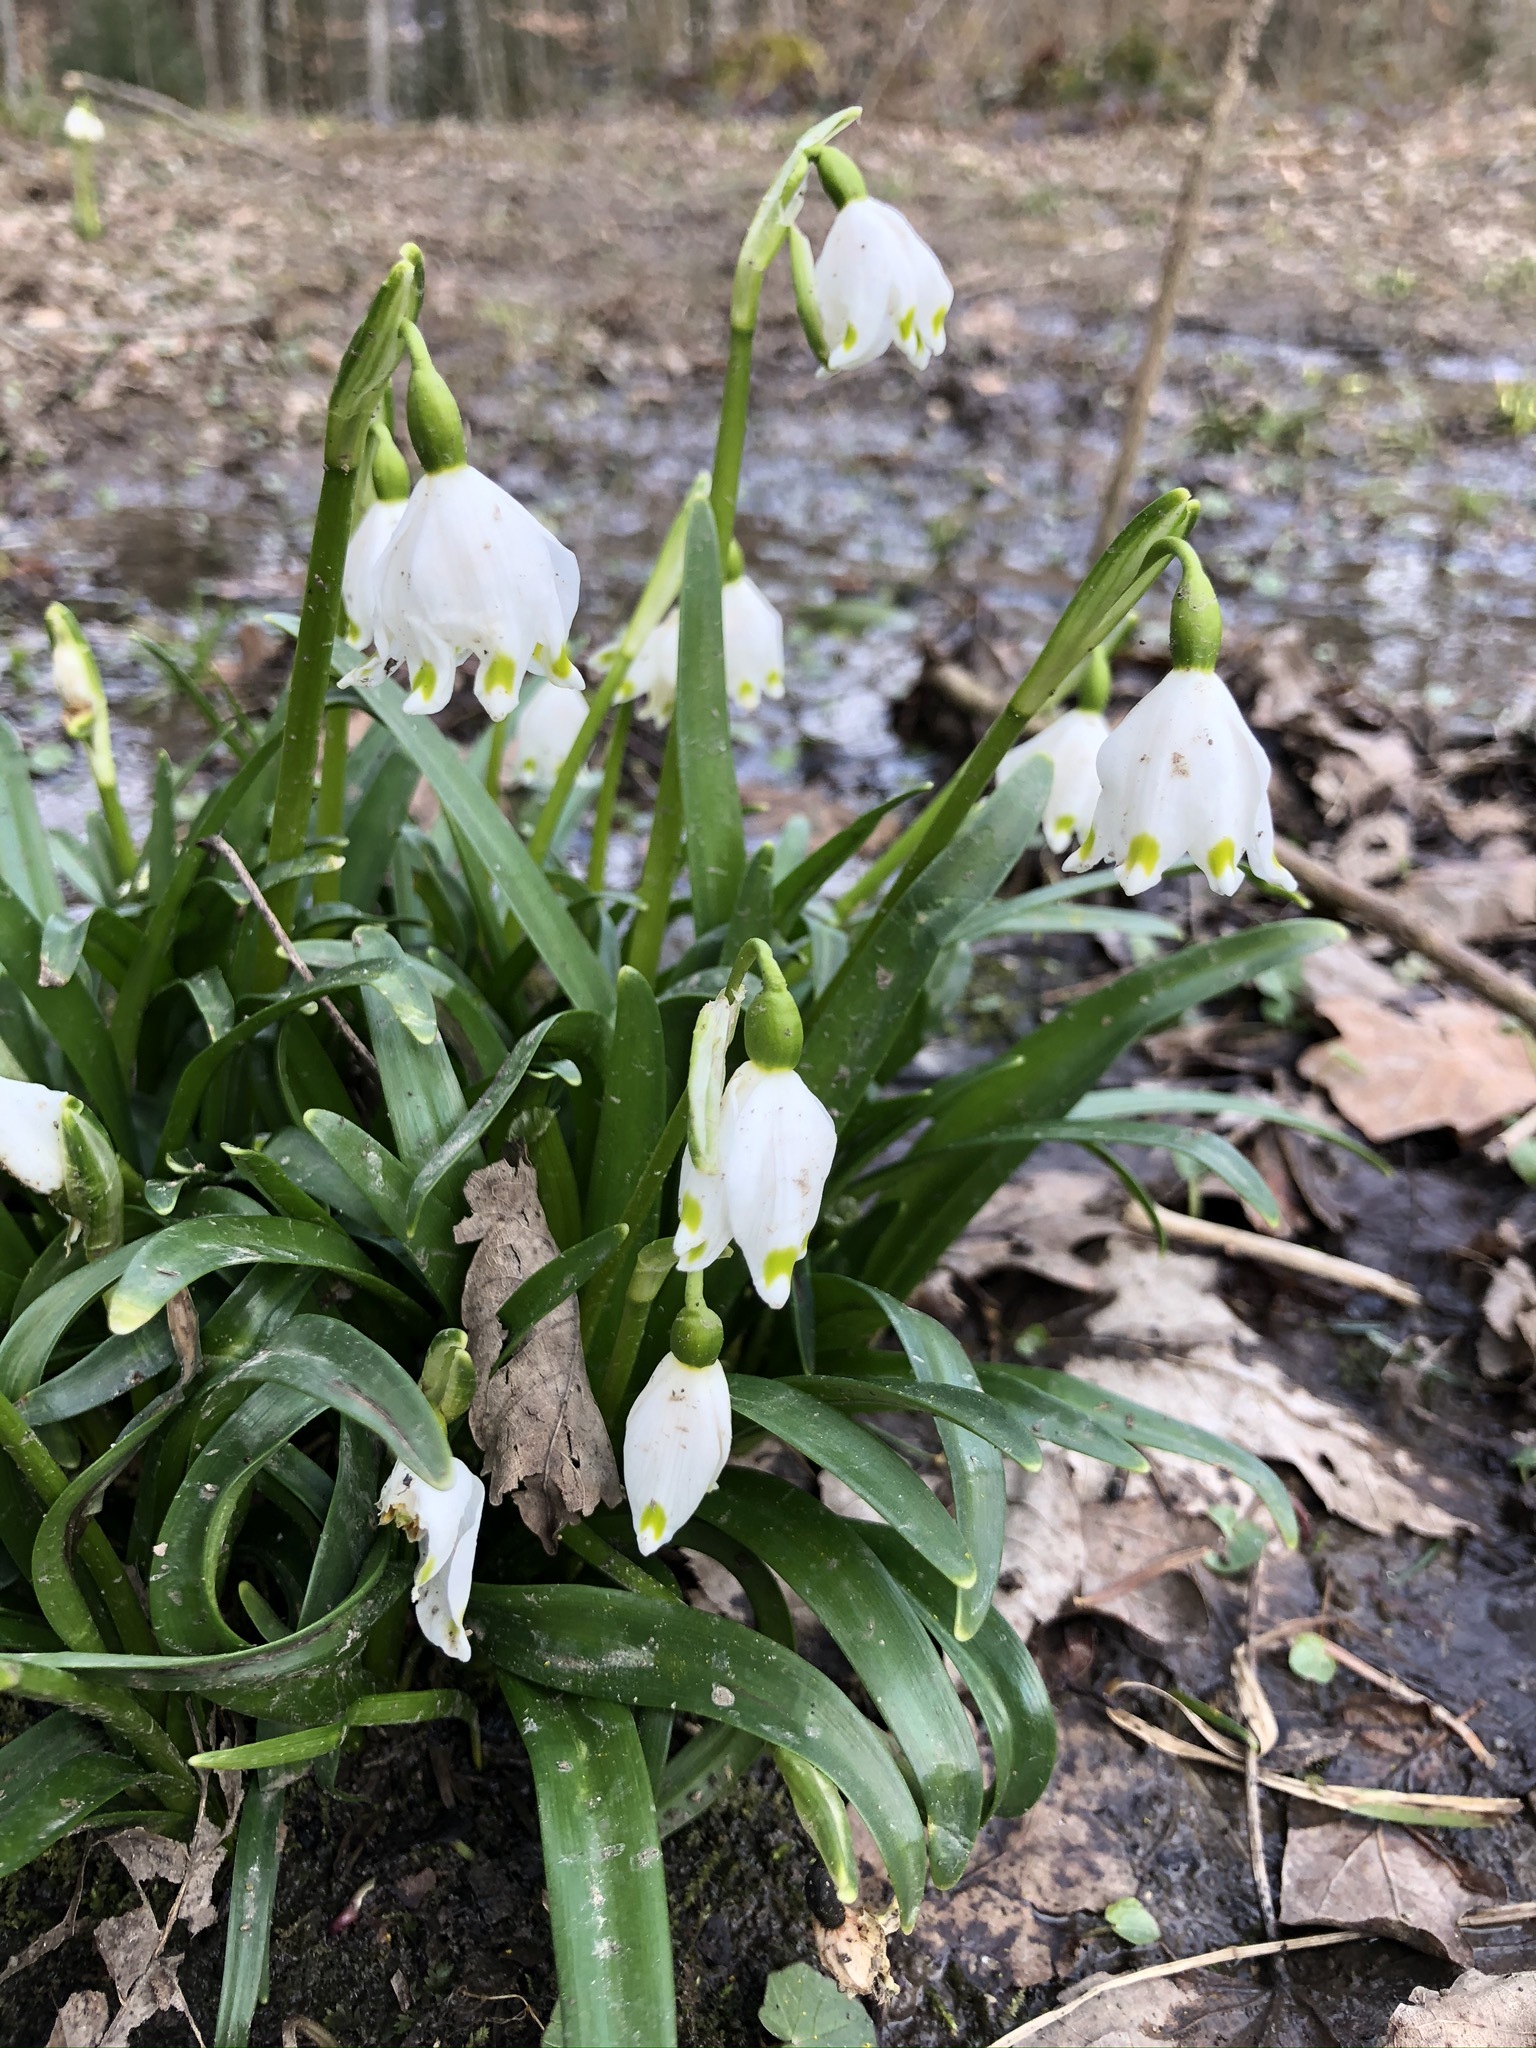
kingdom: Plantae
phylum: Tracheophyta
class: Liliopsida
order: Asparagales
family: Amaryllidaceae
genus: Leucojum
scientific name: Leucojum vernum
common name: Spring snowflake
